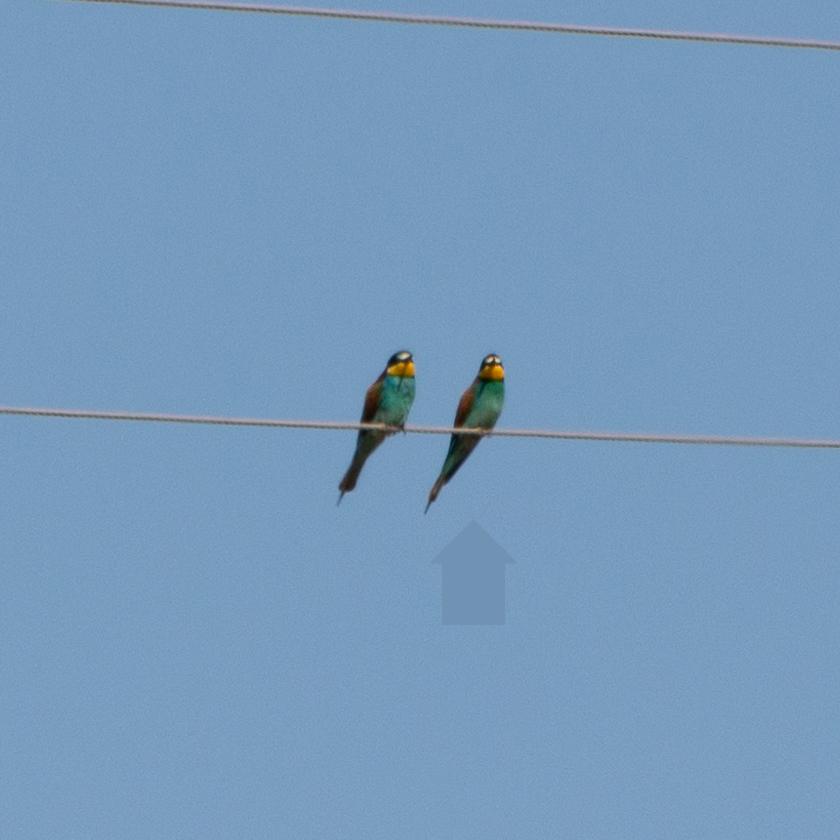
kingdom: Animalia
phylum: Chordata
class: Aves
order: Coraciiformes
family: Meropidae
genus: Merops
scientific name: Merops apiaster
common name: European bee-eater
